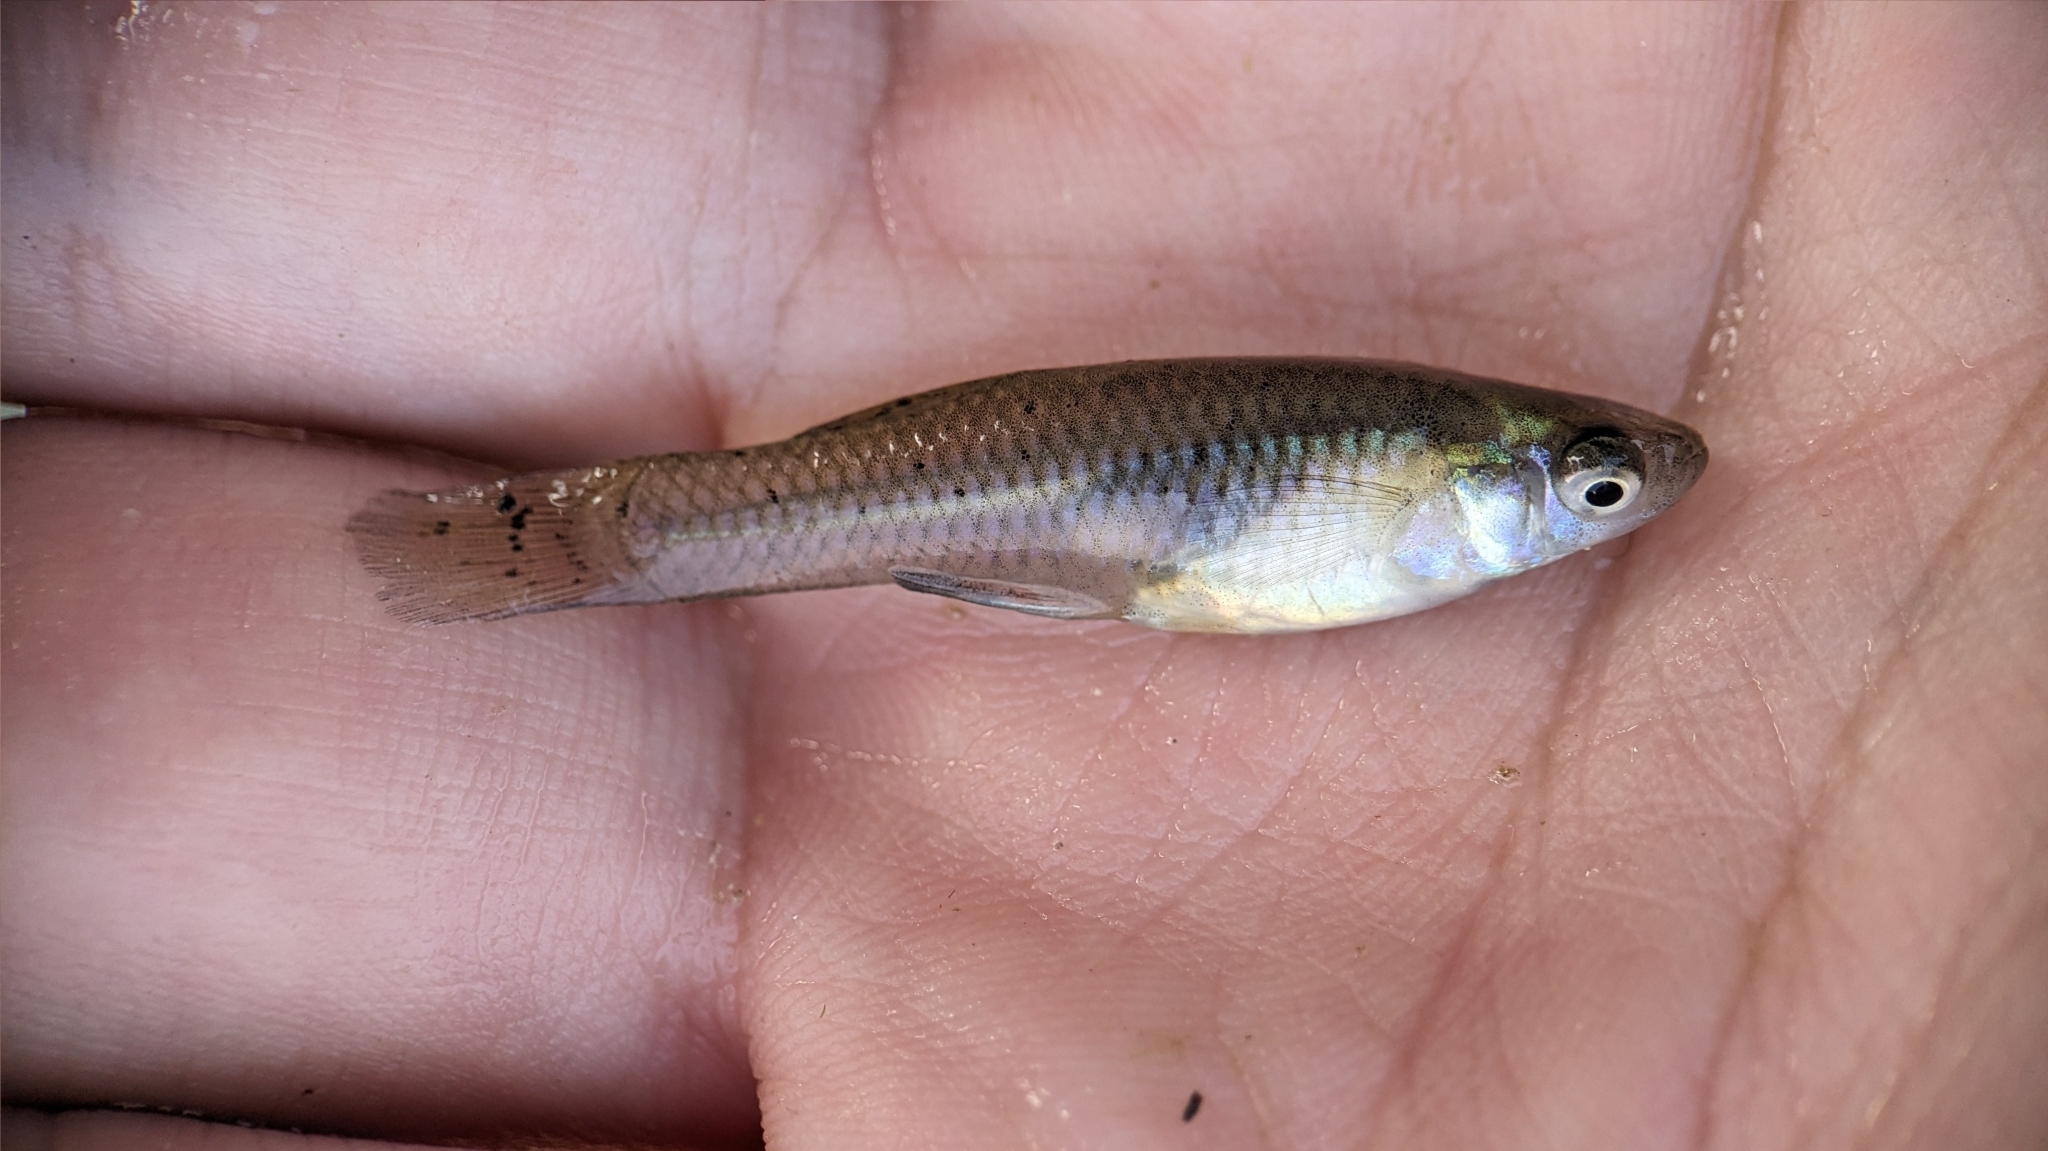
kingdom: Animalia
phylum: Chordata
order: Cyprinodontiformes
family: Poeciliidae
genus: Gambusia
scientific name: Gambusia affinis
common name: Mosquitofish
